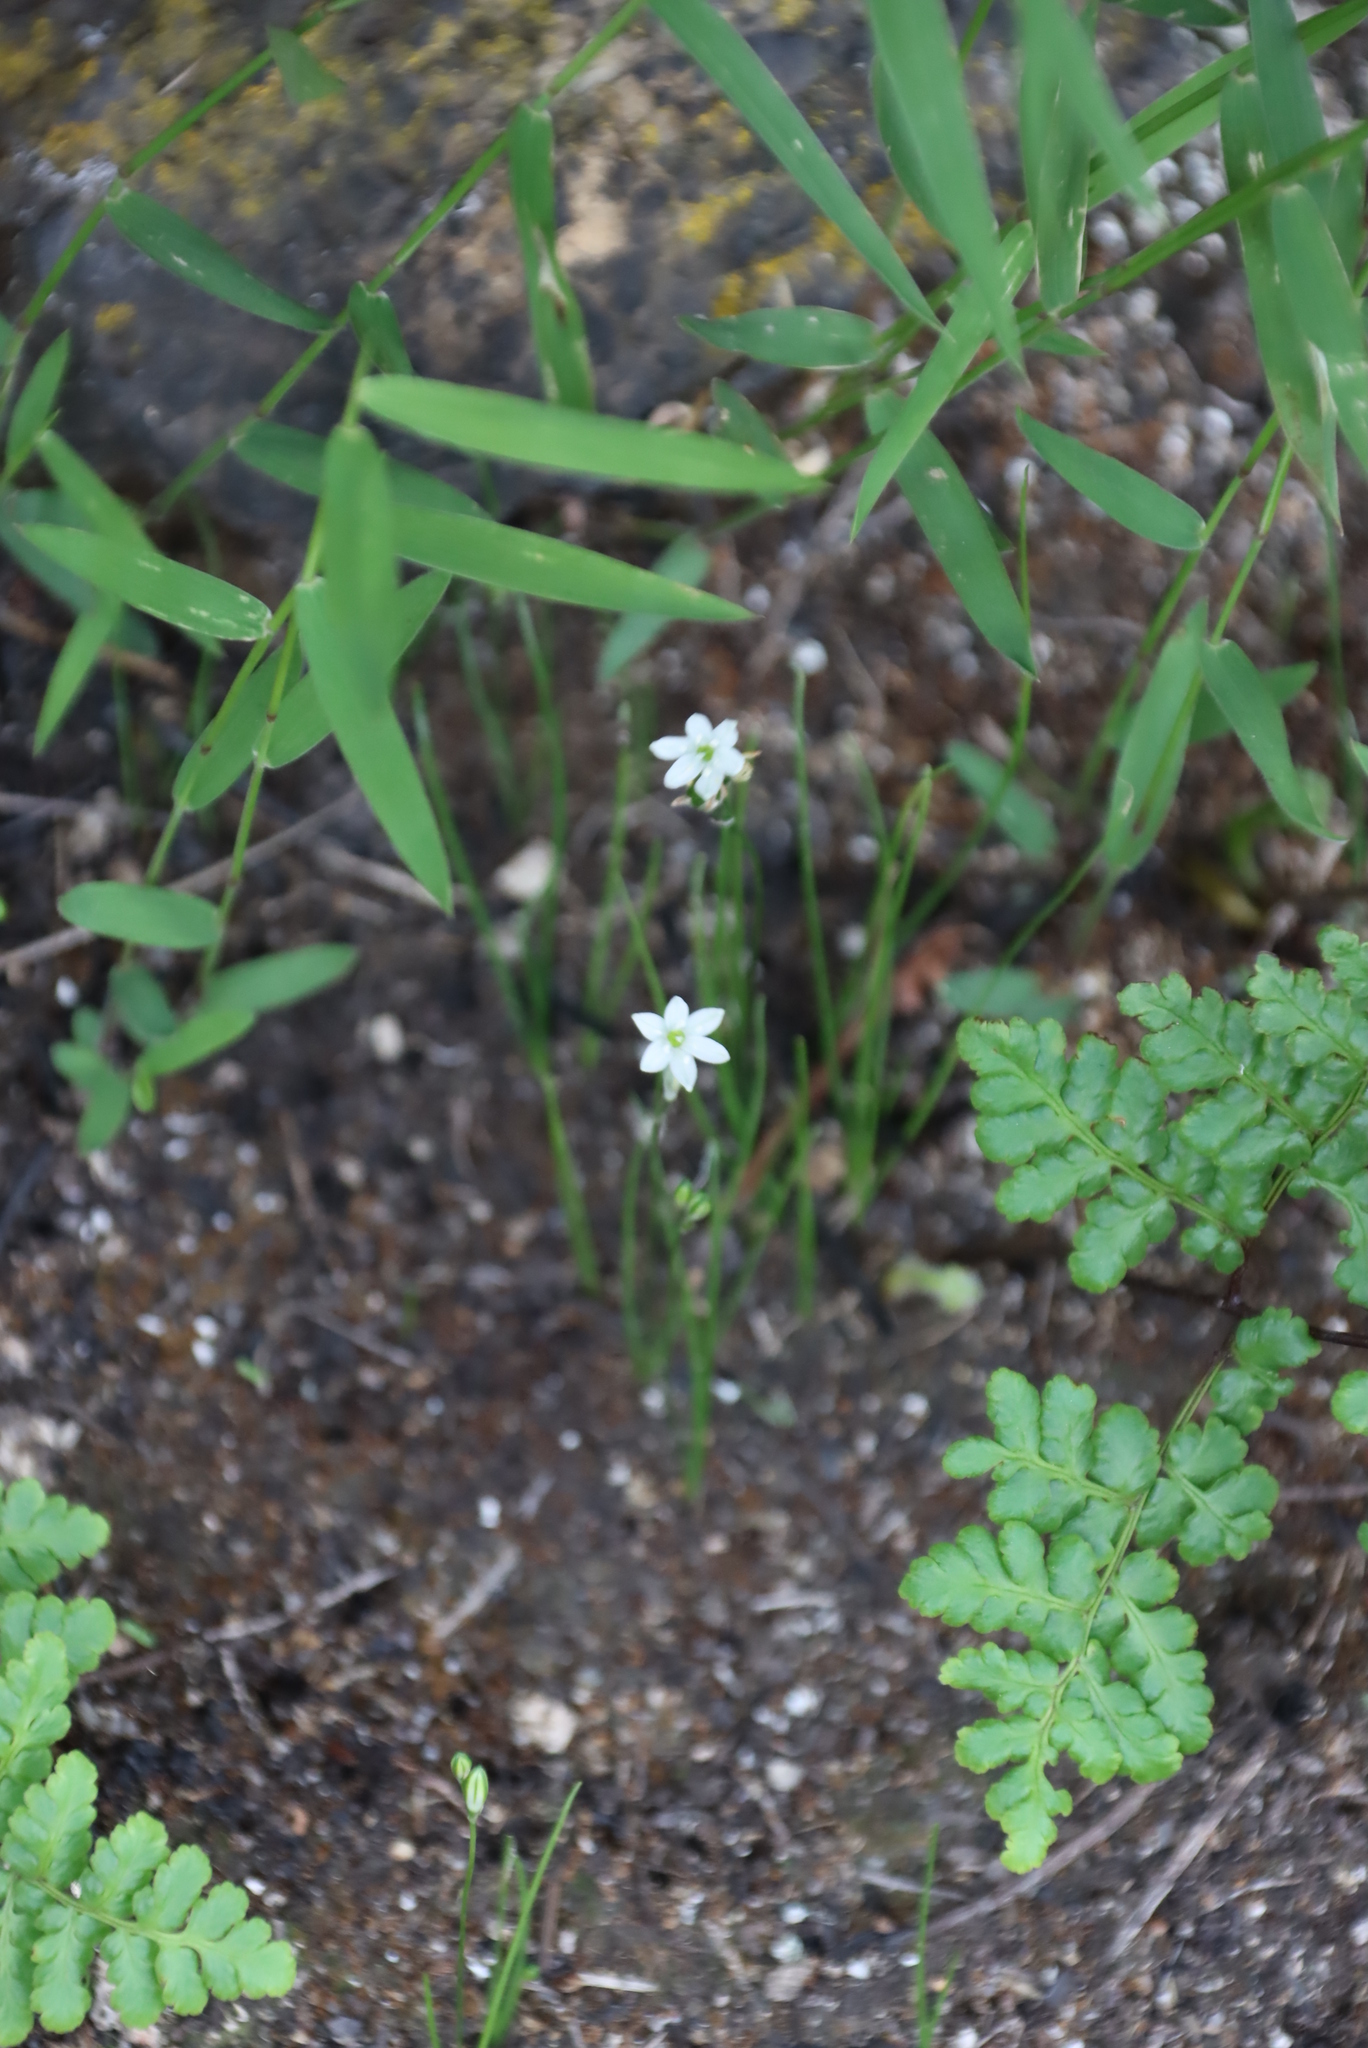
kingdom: Plantae
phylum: Tracheophyta
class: Liliopsida
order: Asparagales
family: Asparagaceae
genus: Ornithogalum
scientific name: Ornithogalum annae-ameliae
